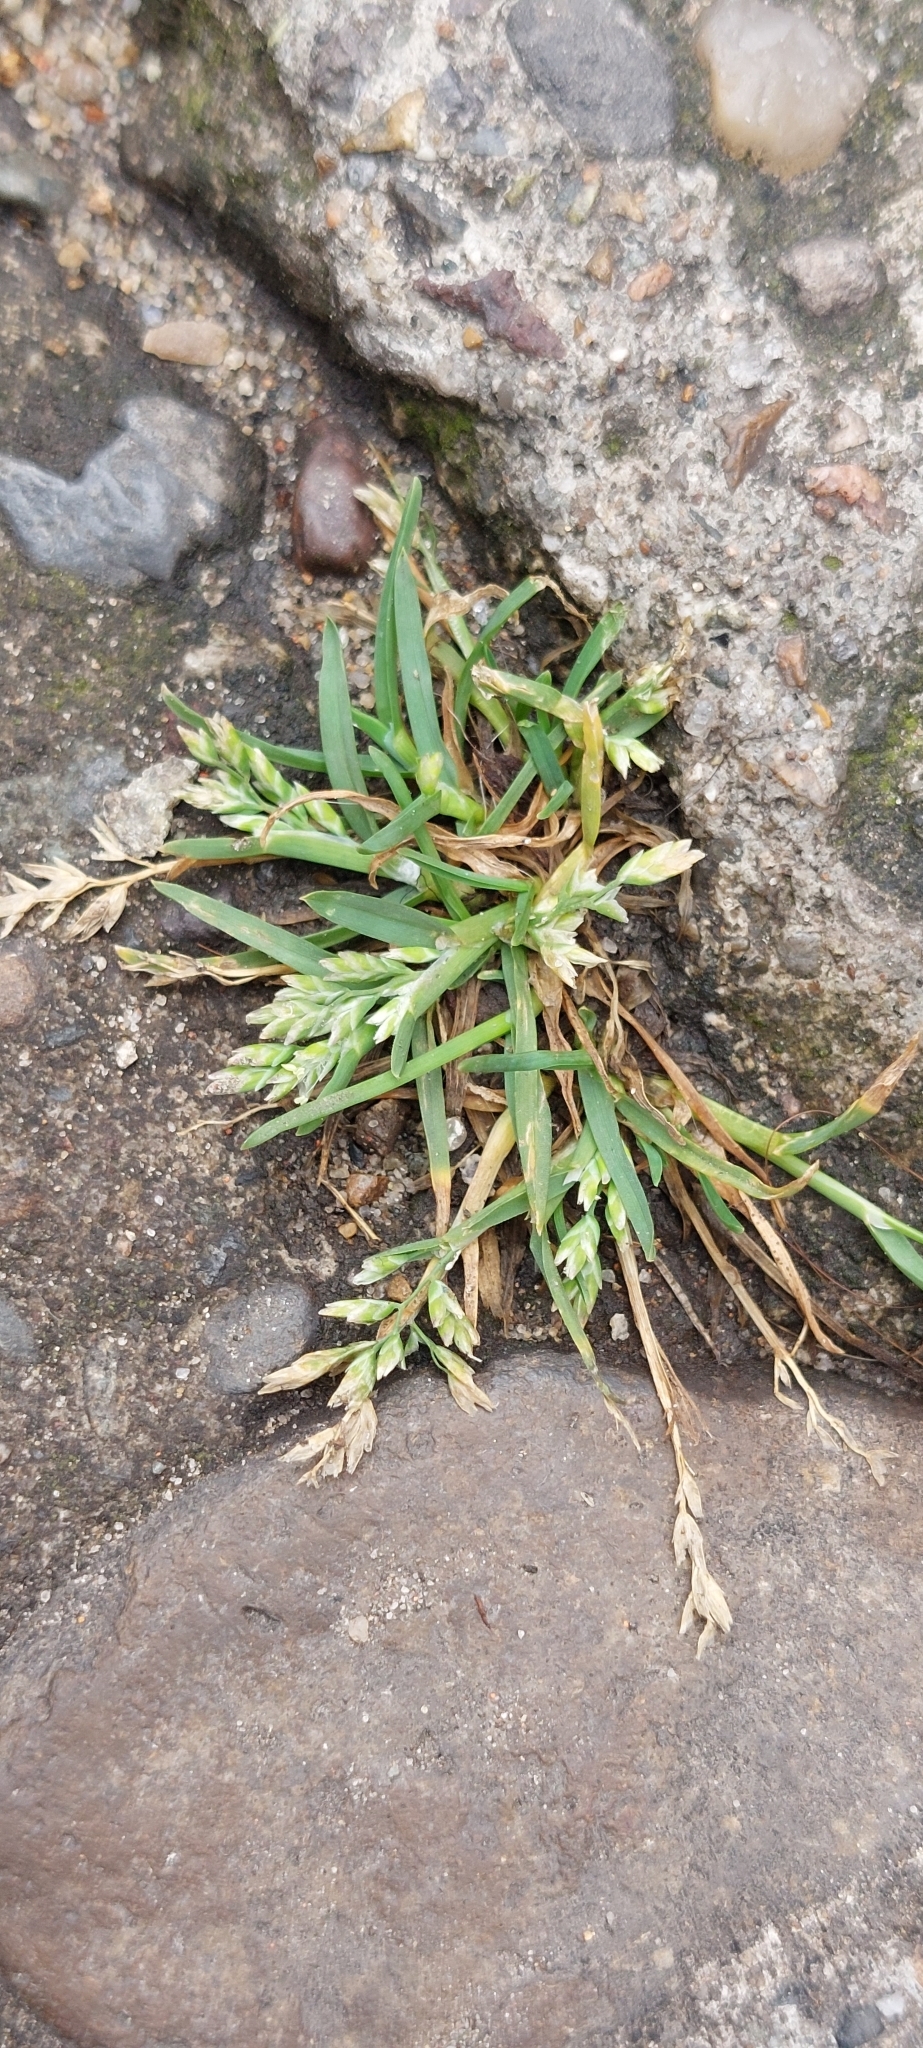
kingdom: Plantae
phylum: Tracheophyta
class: Liliopsida
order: Poales
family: Poaceae
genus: Poa
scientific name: Poa annua
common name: Annual bluegrass
